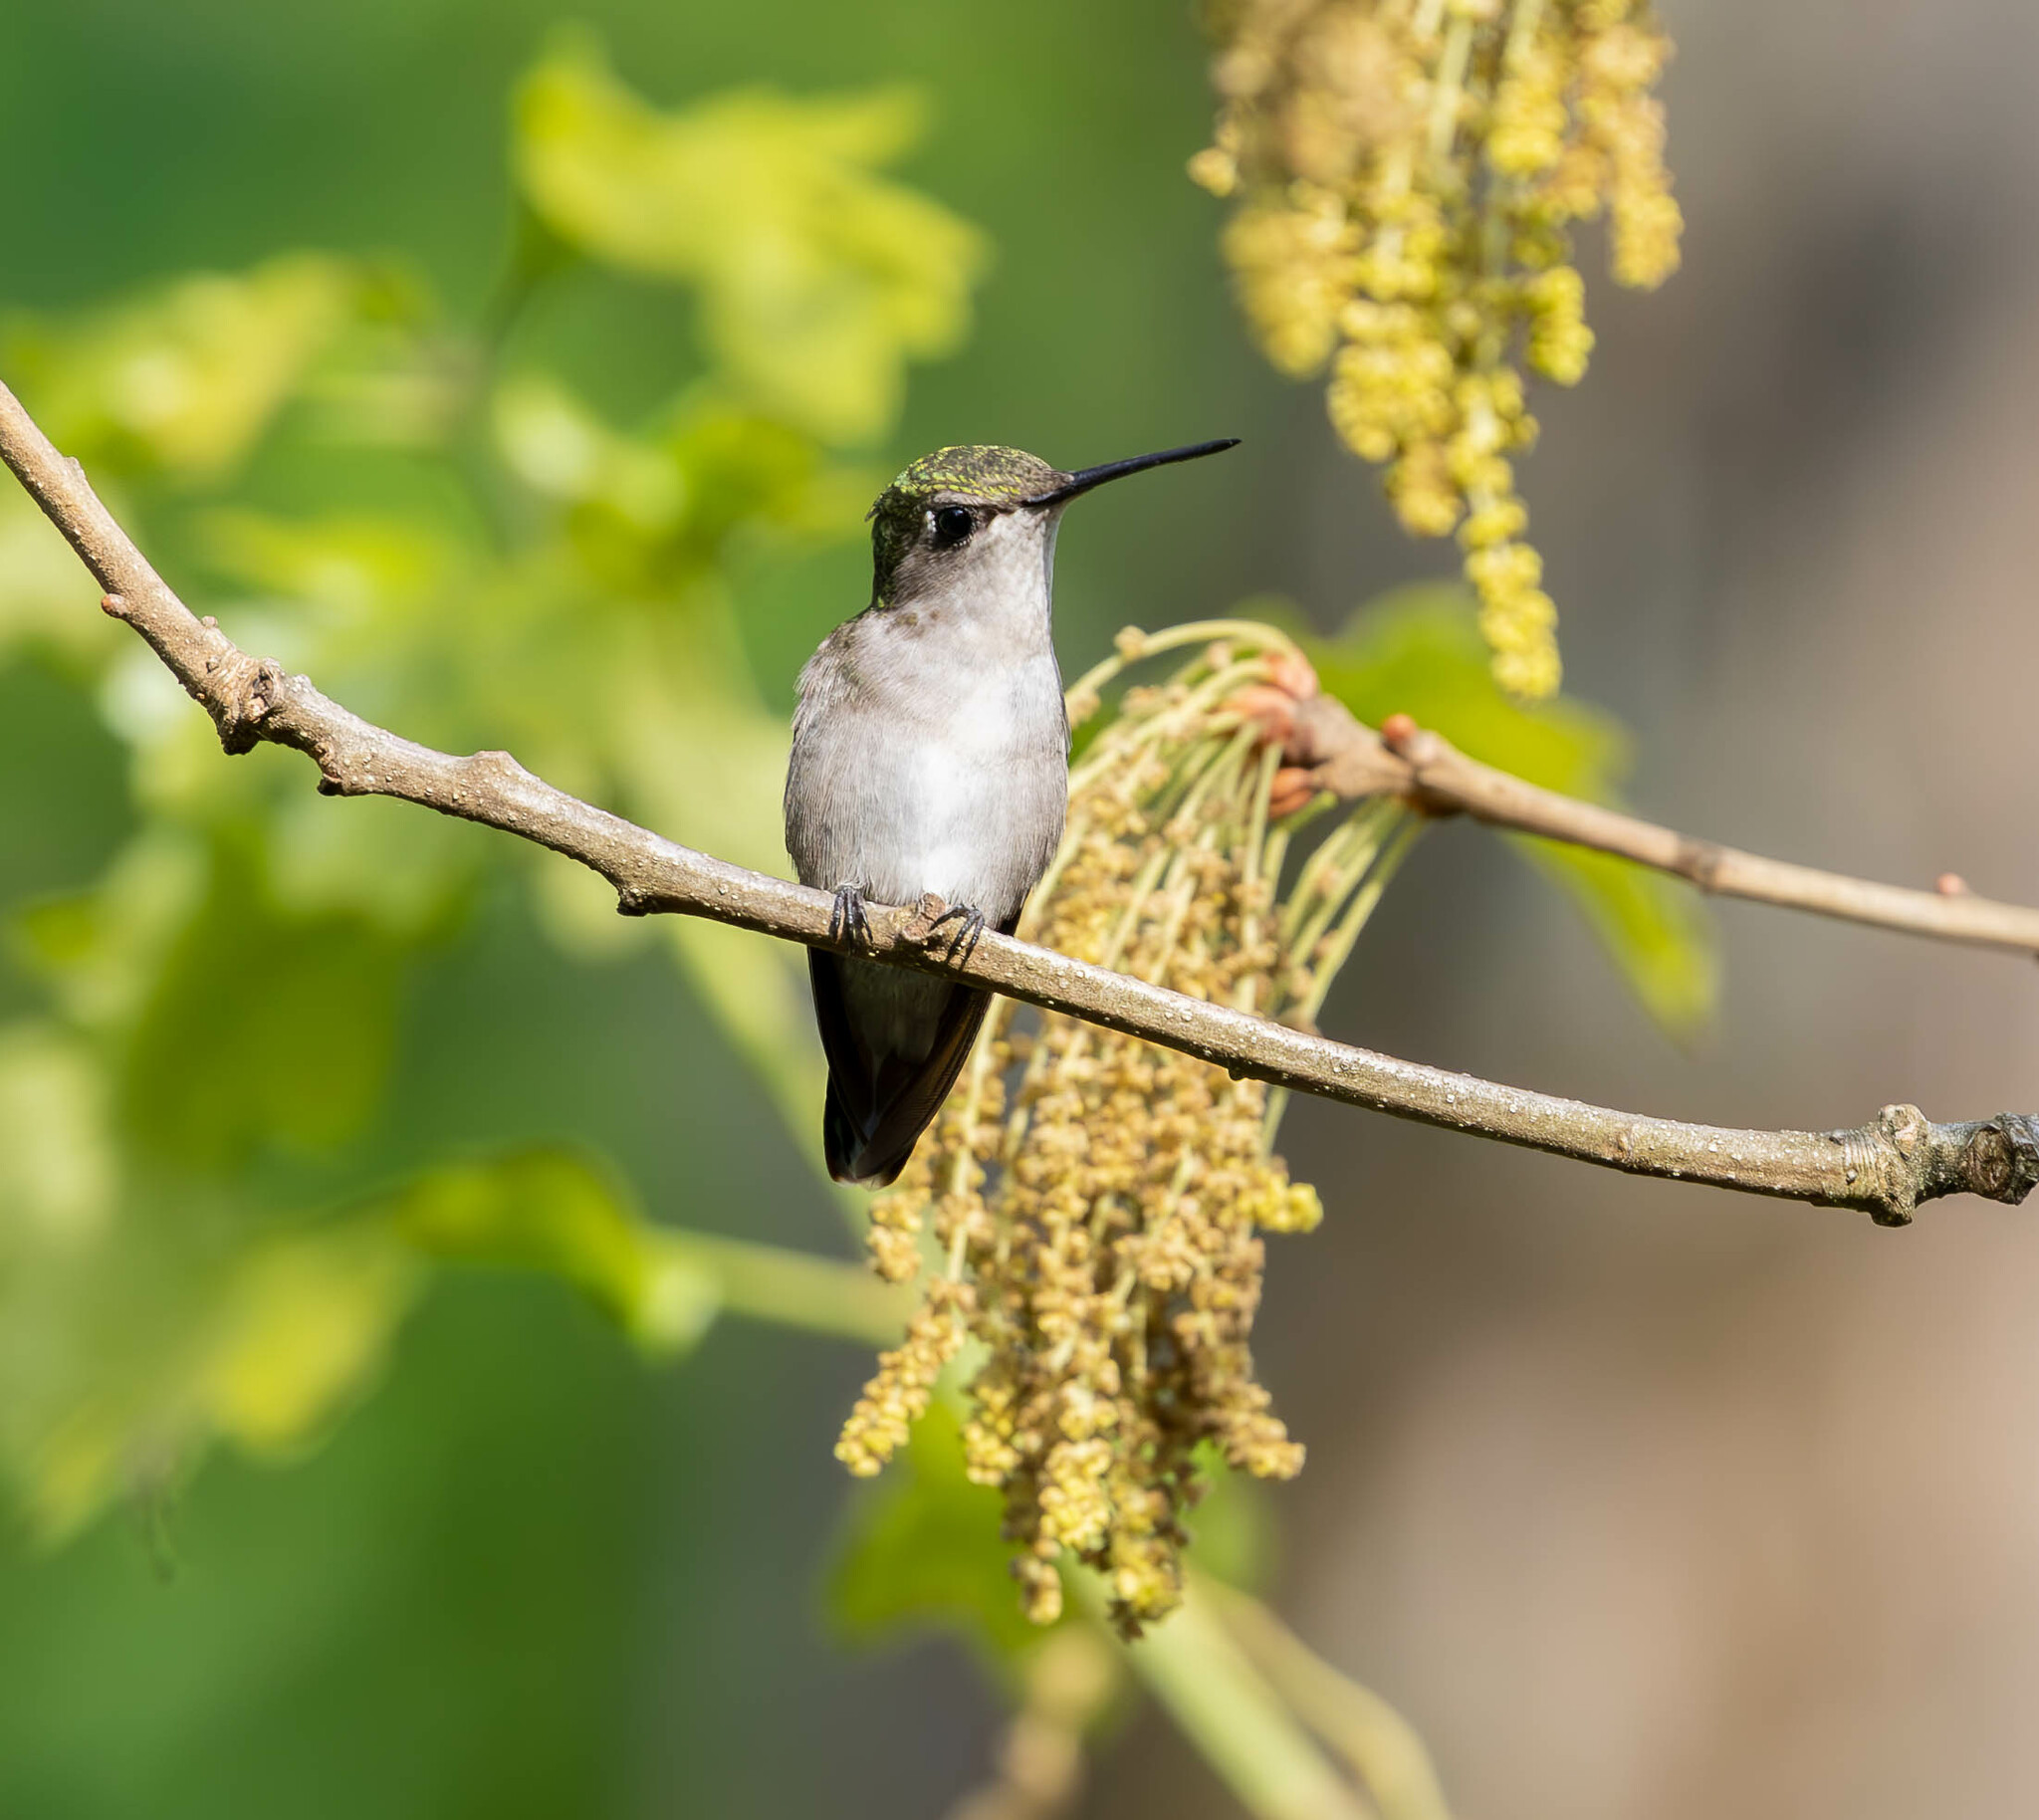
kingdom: Animalia
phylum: Chordata
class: Aves
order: Apodiformes
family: Trochilidae
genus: Archilochus
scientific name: Archilochus colubris
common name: Ruby-throated hummingbird
